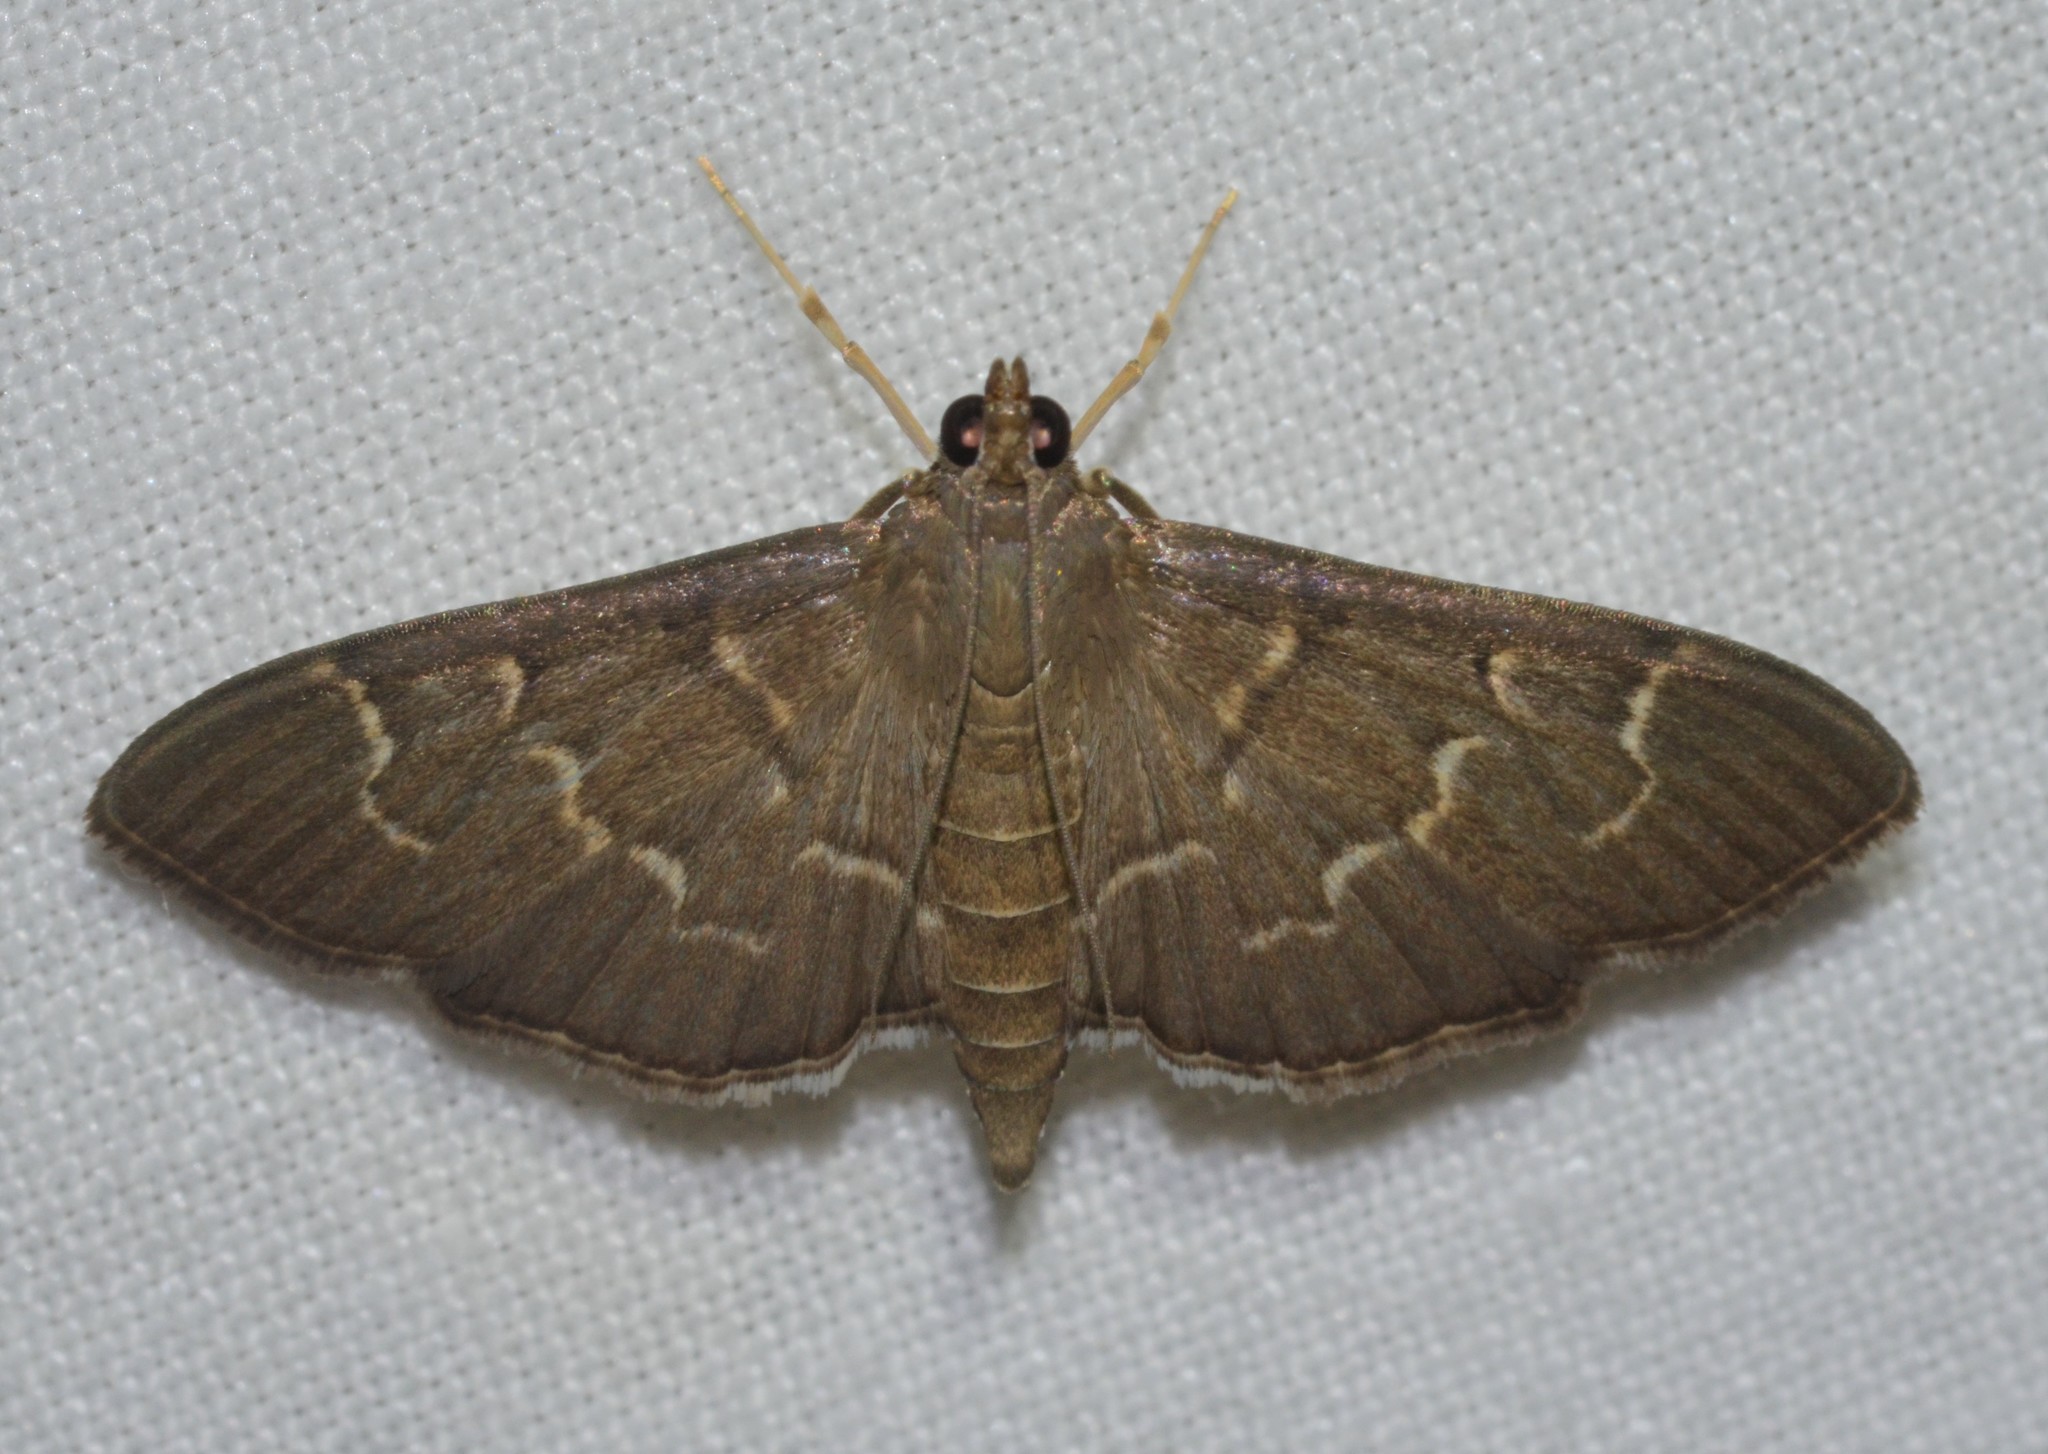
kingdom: Animalia
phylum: Arthropoda
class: Insecta
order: Lepidoptera
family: Crambidae
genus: Pilocrocis
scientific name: Pilocrocis ramentalis
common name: Scraped pilocrocis
